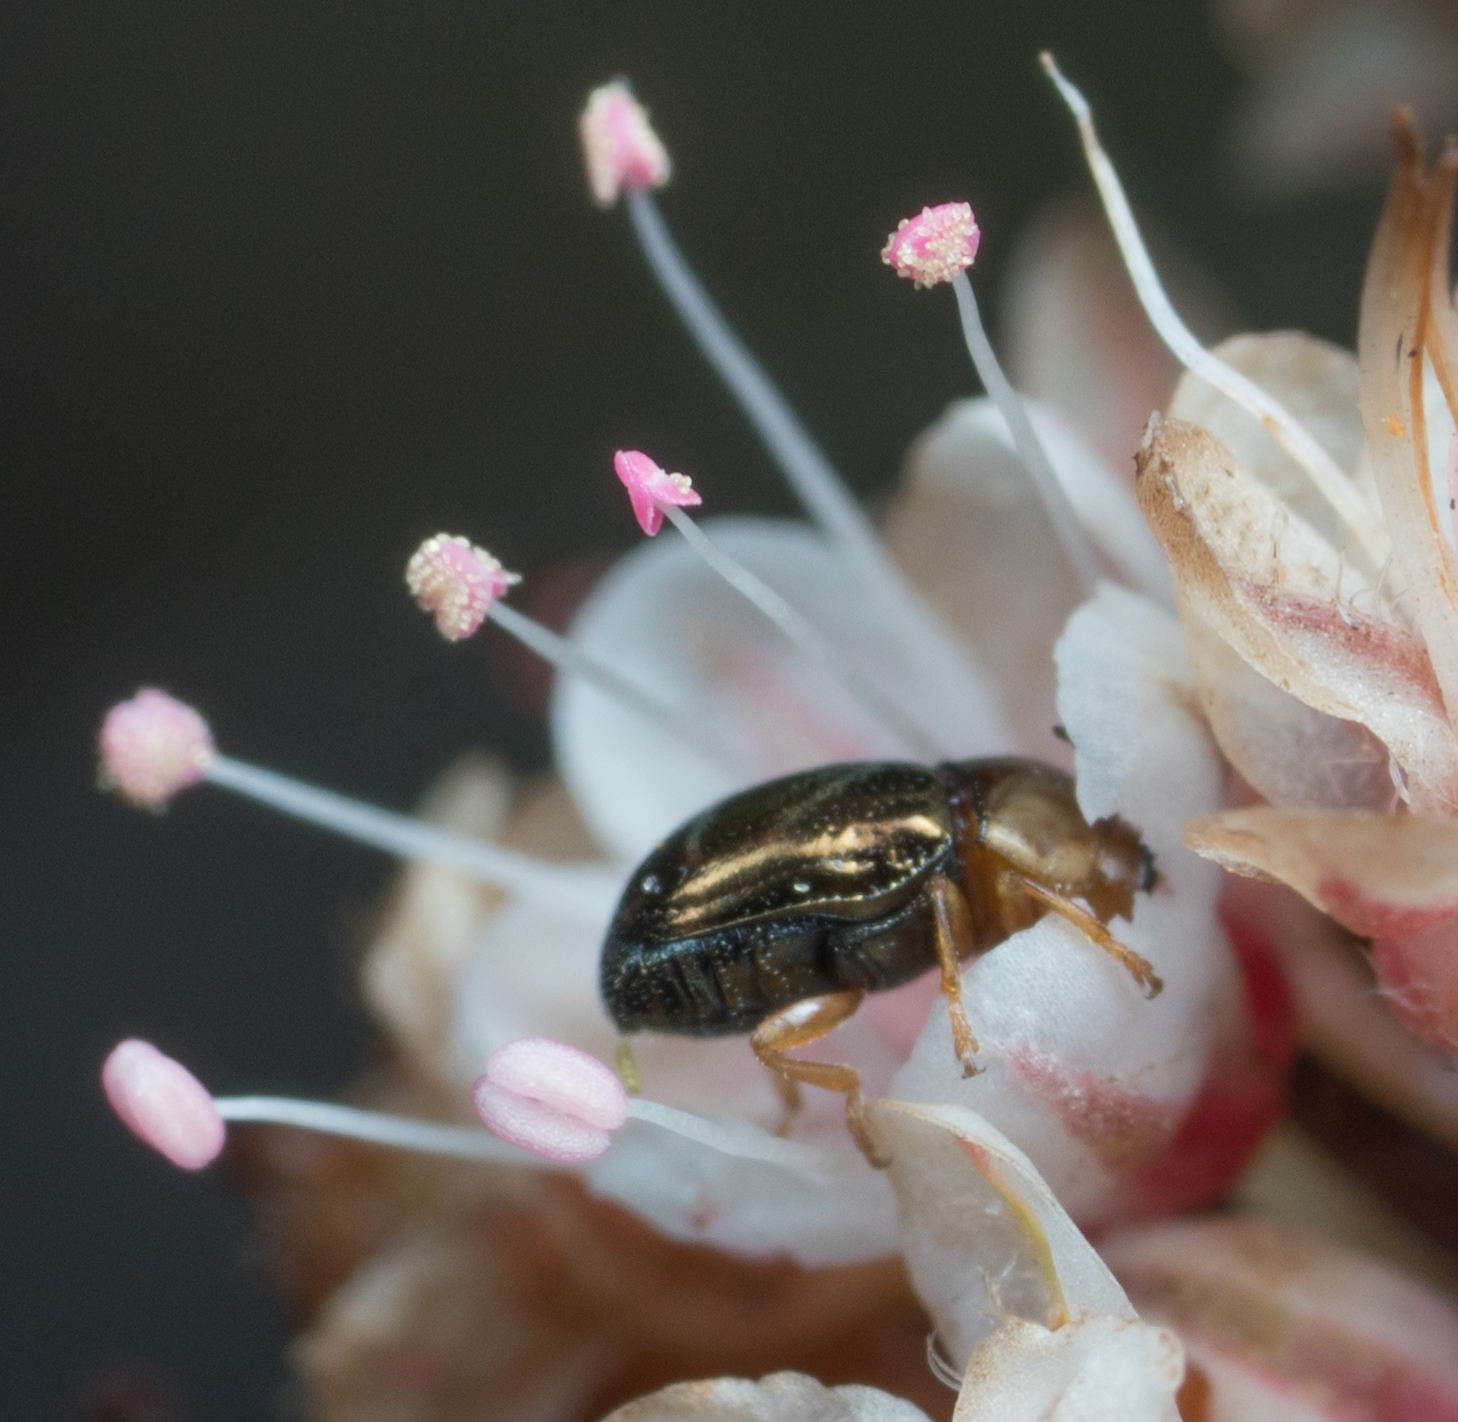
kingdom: Animalia
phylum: Arthropoda
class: Insecta
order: Coleoptera
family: Chrysomelidae
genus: Diachus
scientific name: Diachus auratus
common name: Bronze leaf beetle
